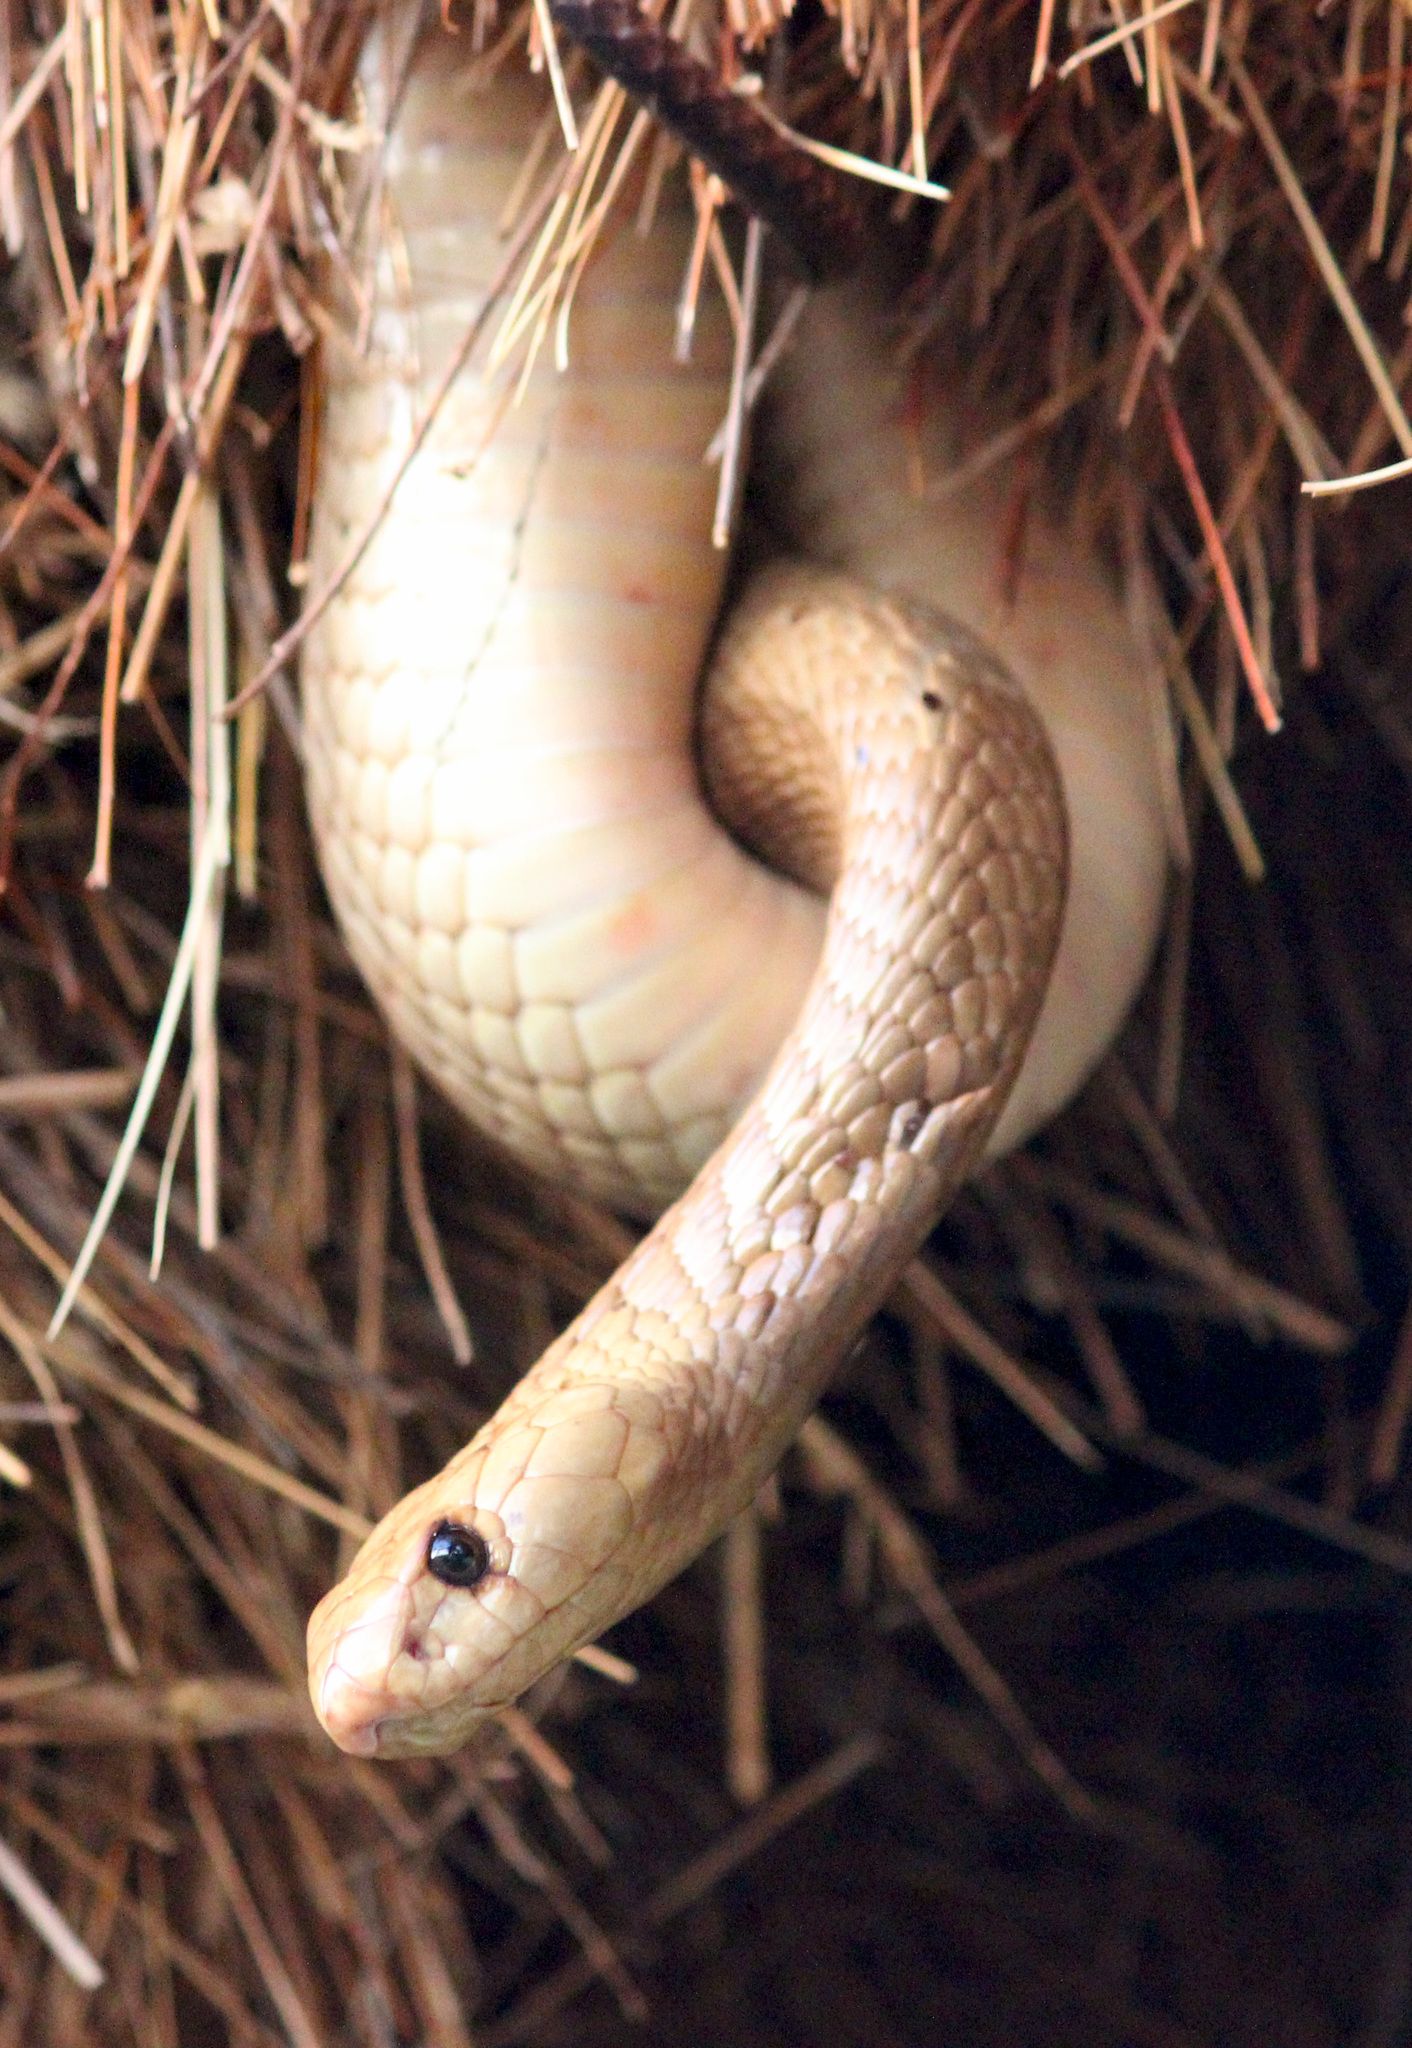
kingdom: Animalia
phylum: Chordata
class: Squamata
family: Elapidae
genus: Naja
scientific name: Naja nivea
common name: Cape cobra
